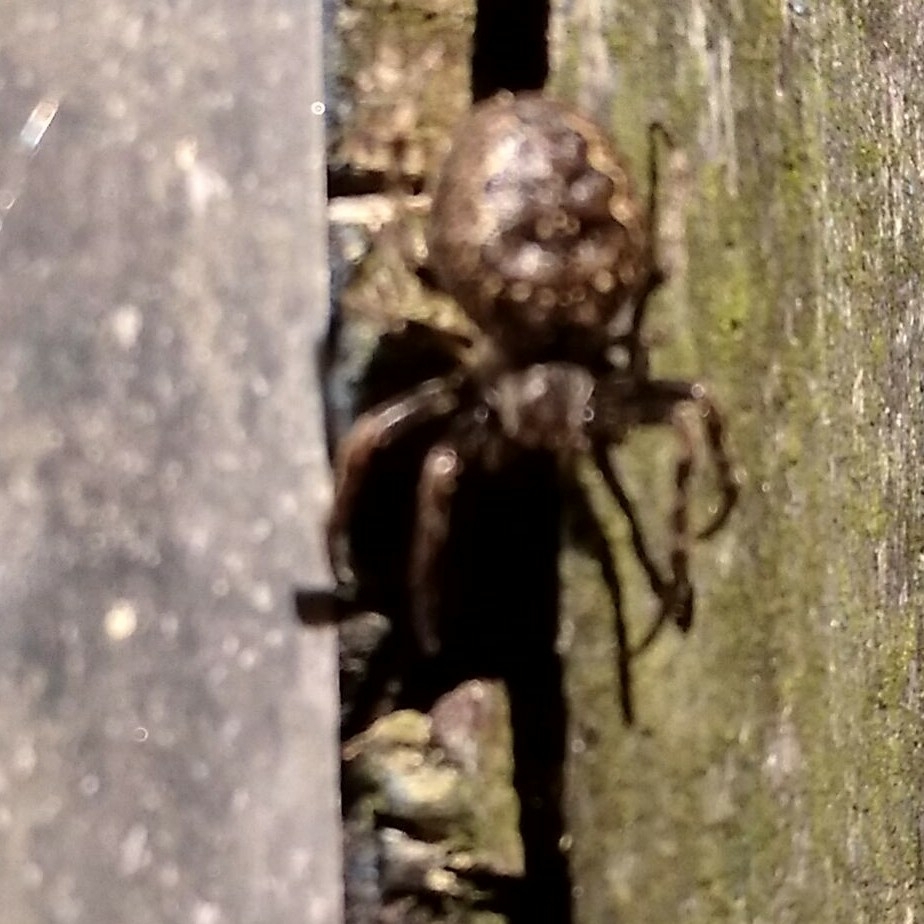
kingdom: Animalia
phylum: Arthropoda
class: Arachnida
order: Araneae
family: Araneidae
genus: Nuctenea
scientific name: Nuctenea umbratica
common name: Toad spider
